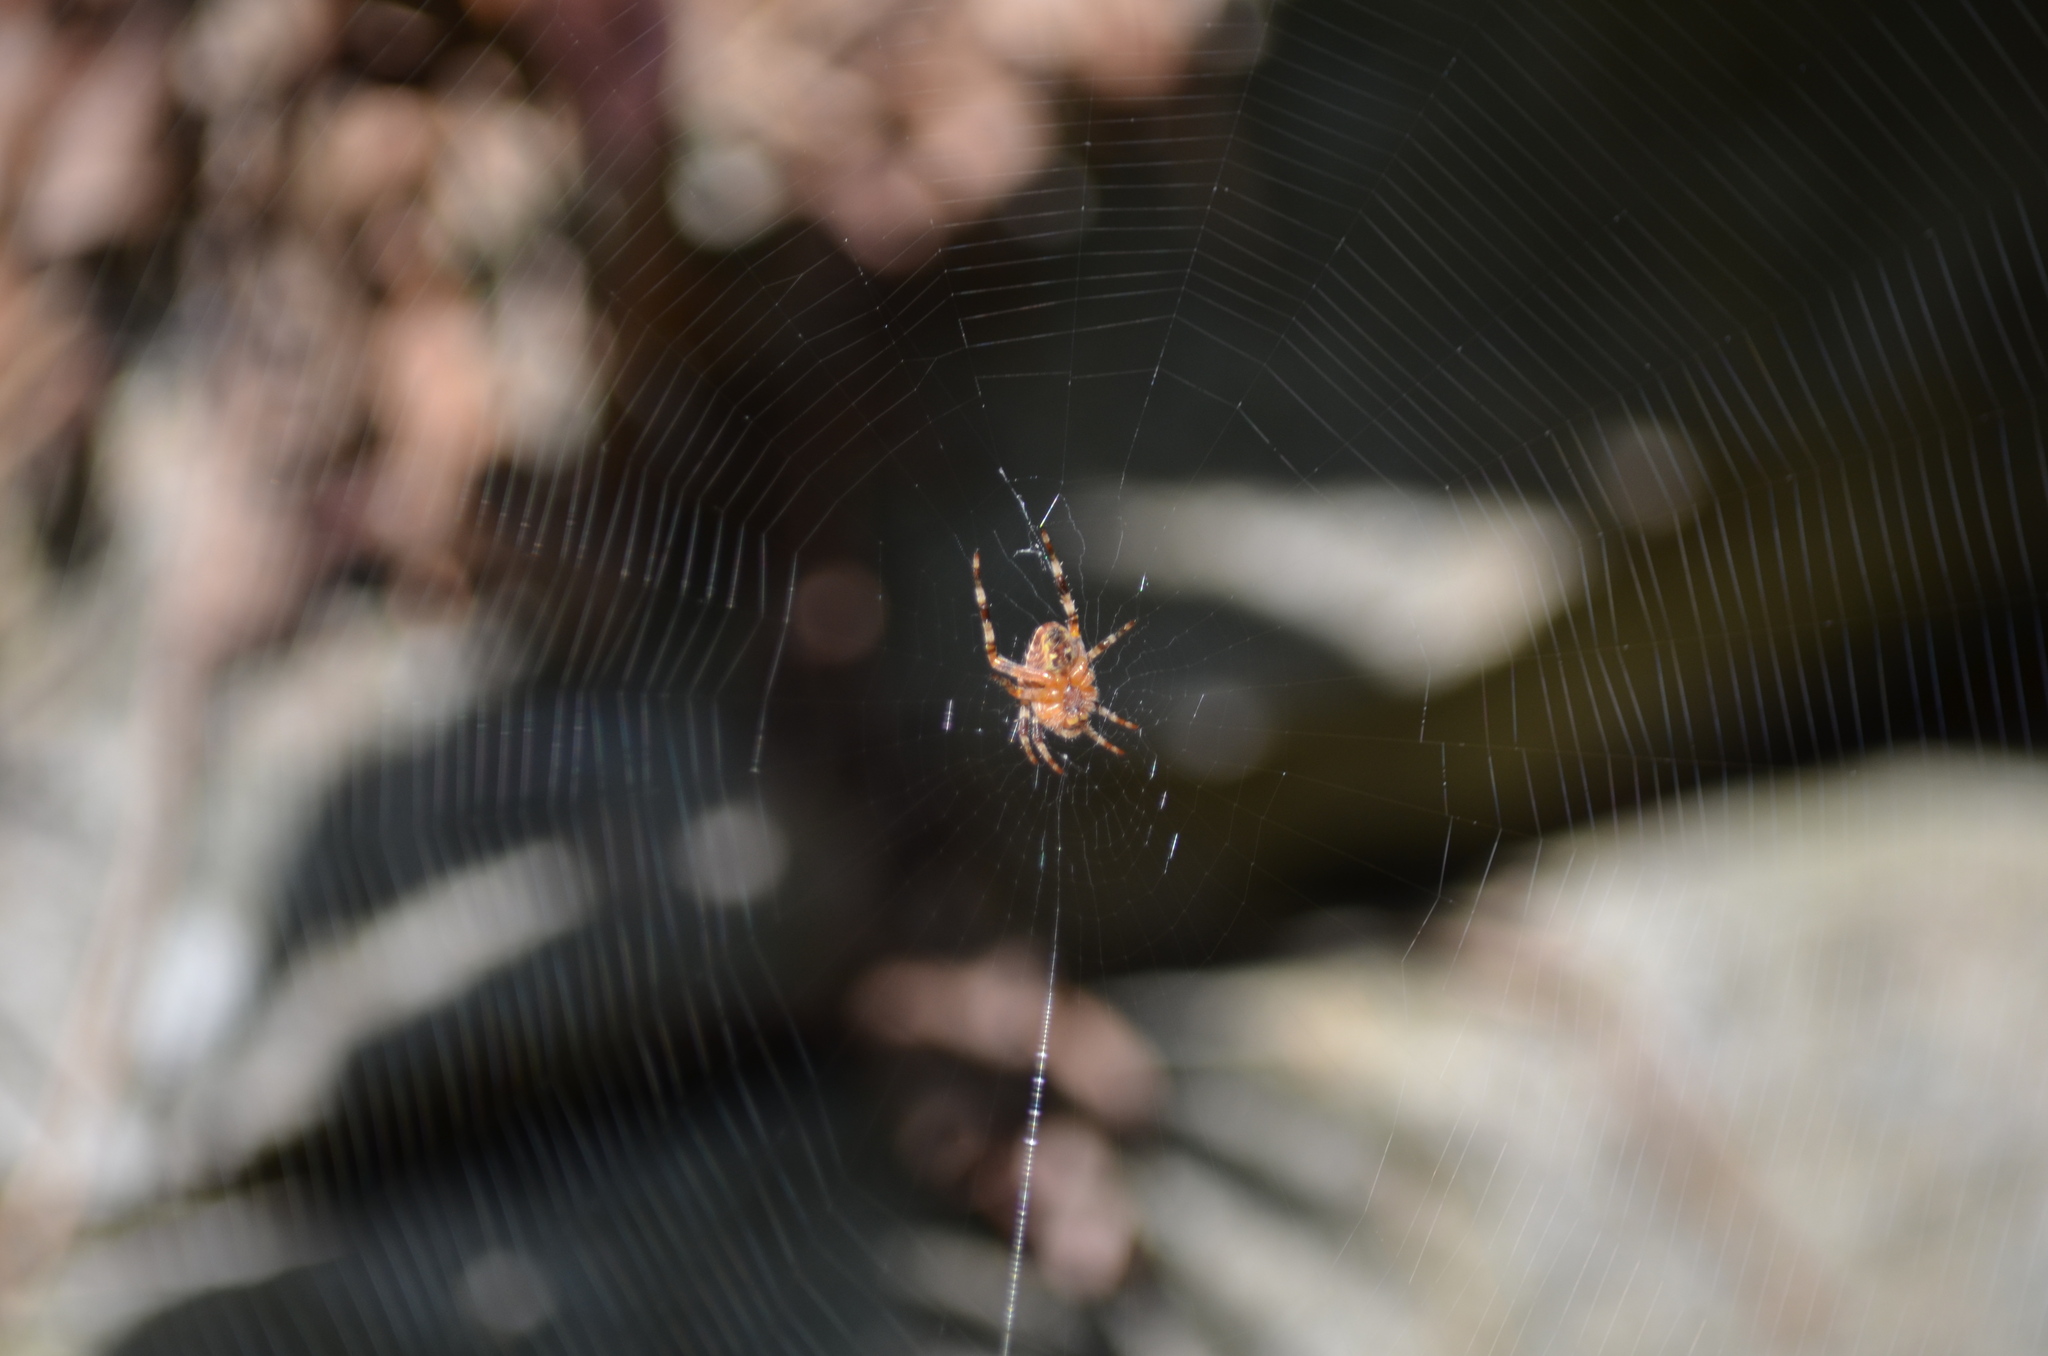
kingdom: Animalia
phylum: Arthropoda
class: Arachnida
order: Araneae
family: Araneidae
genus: Araneus
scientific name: Araneus diadematus
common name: Cross orbweaver
